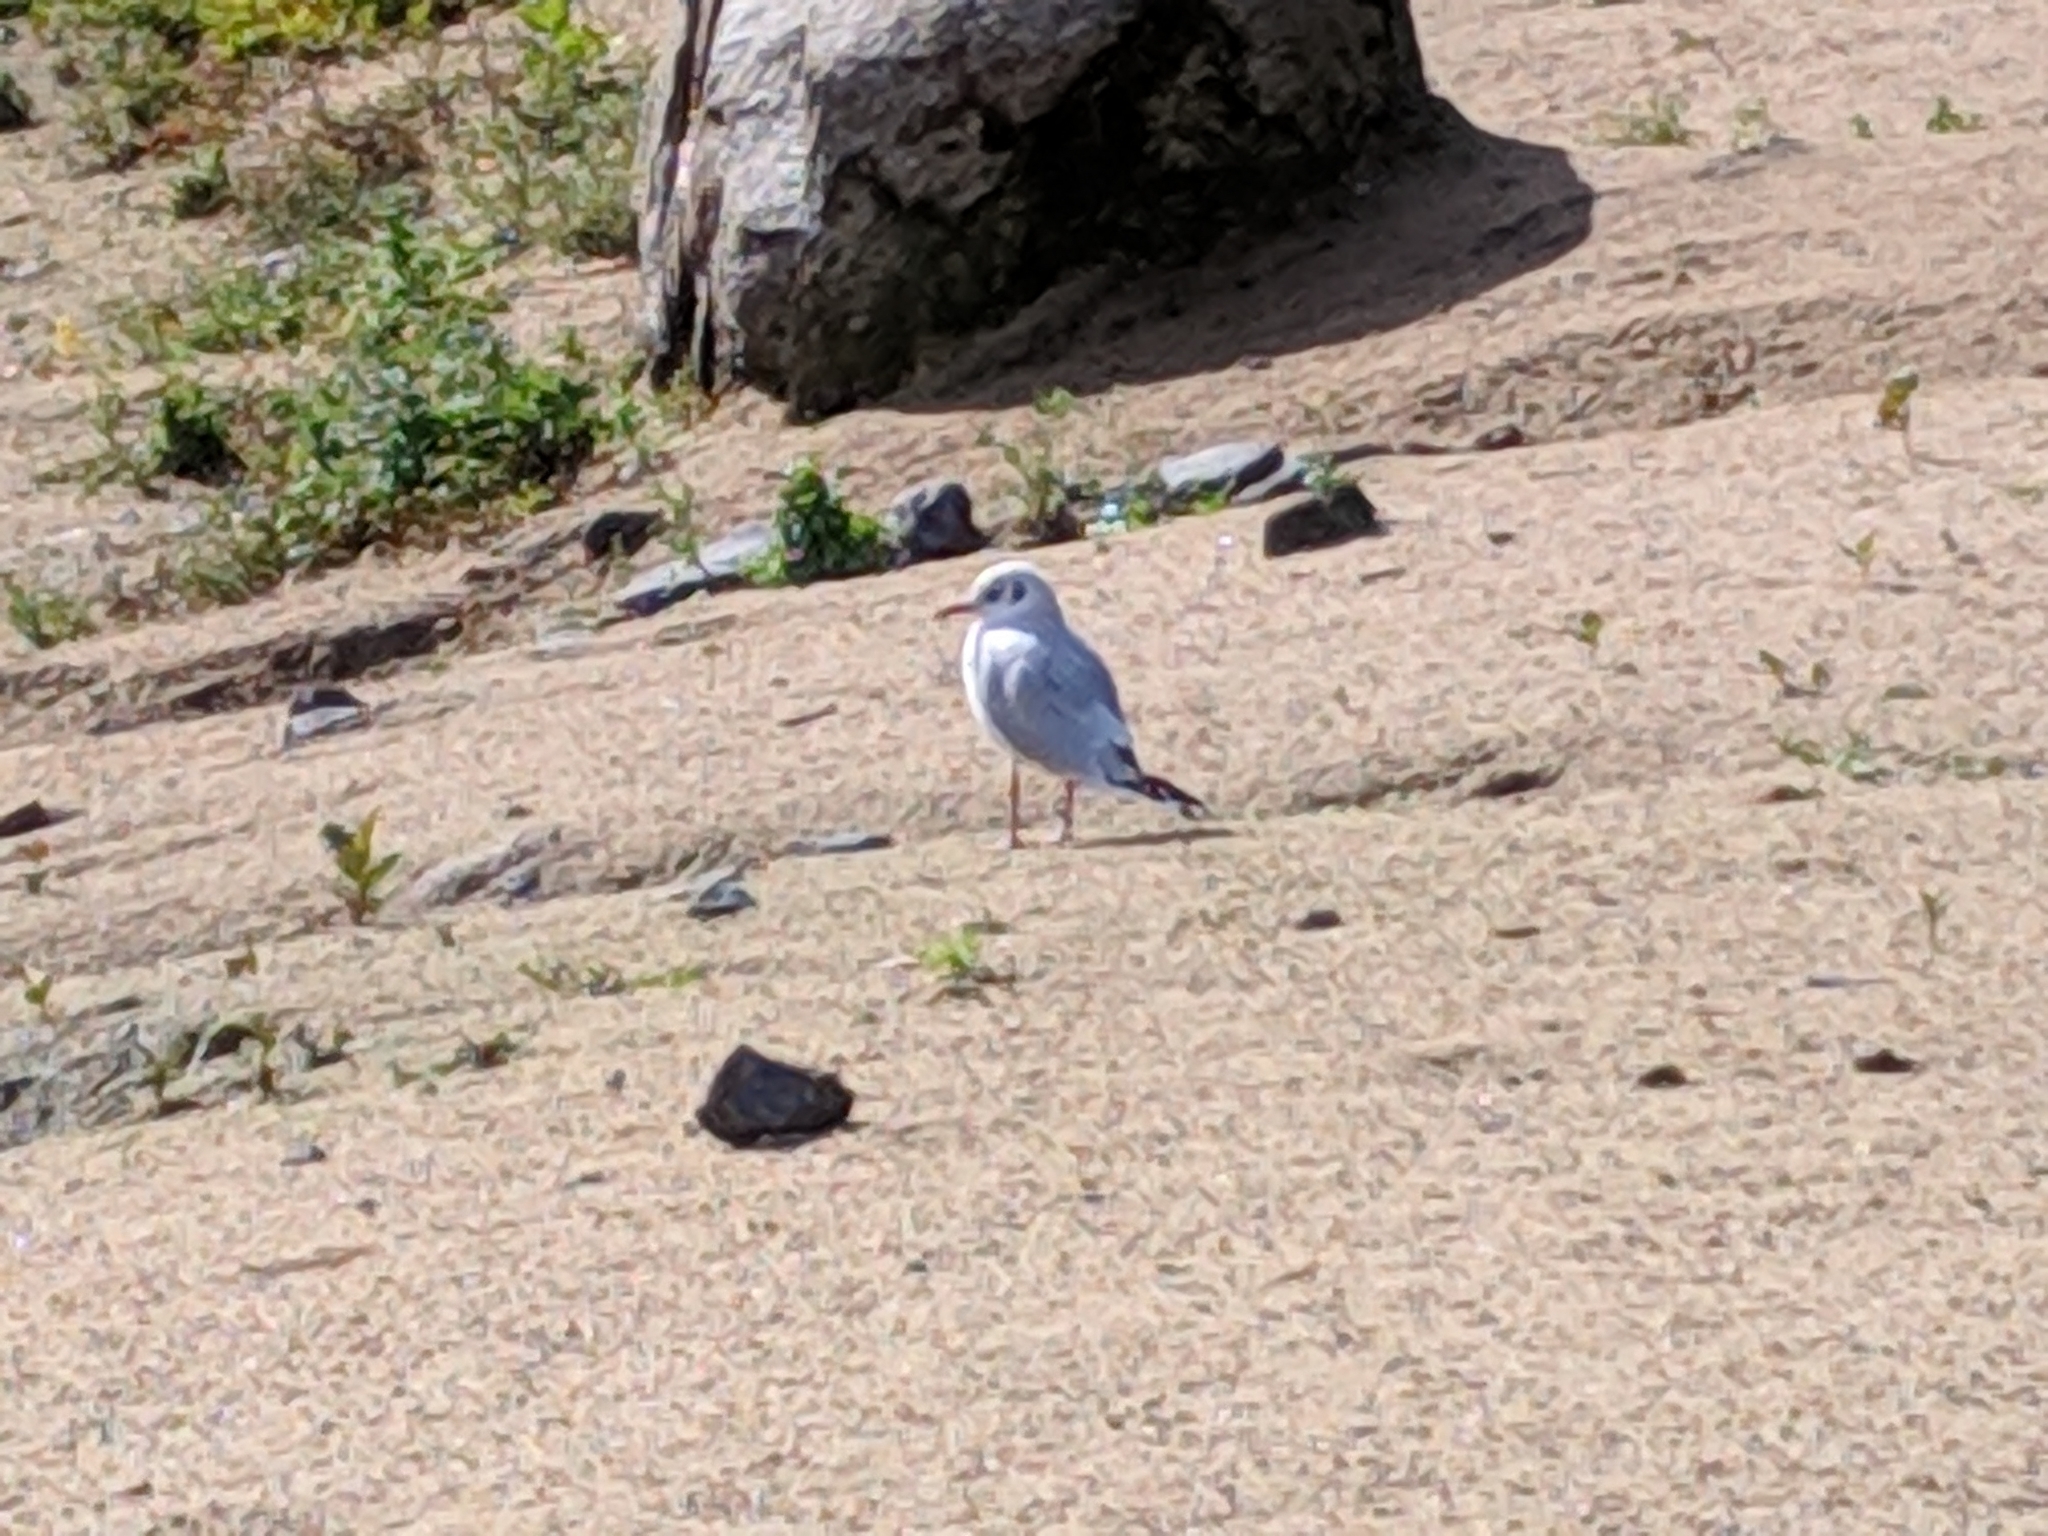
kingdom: Animalia
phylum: Chordata
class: Aves
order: Charadriiformes
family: Laridae
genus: Chroicocephalus
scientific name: Chroicocephalus ridibundus
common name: Black-headed gull
